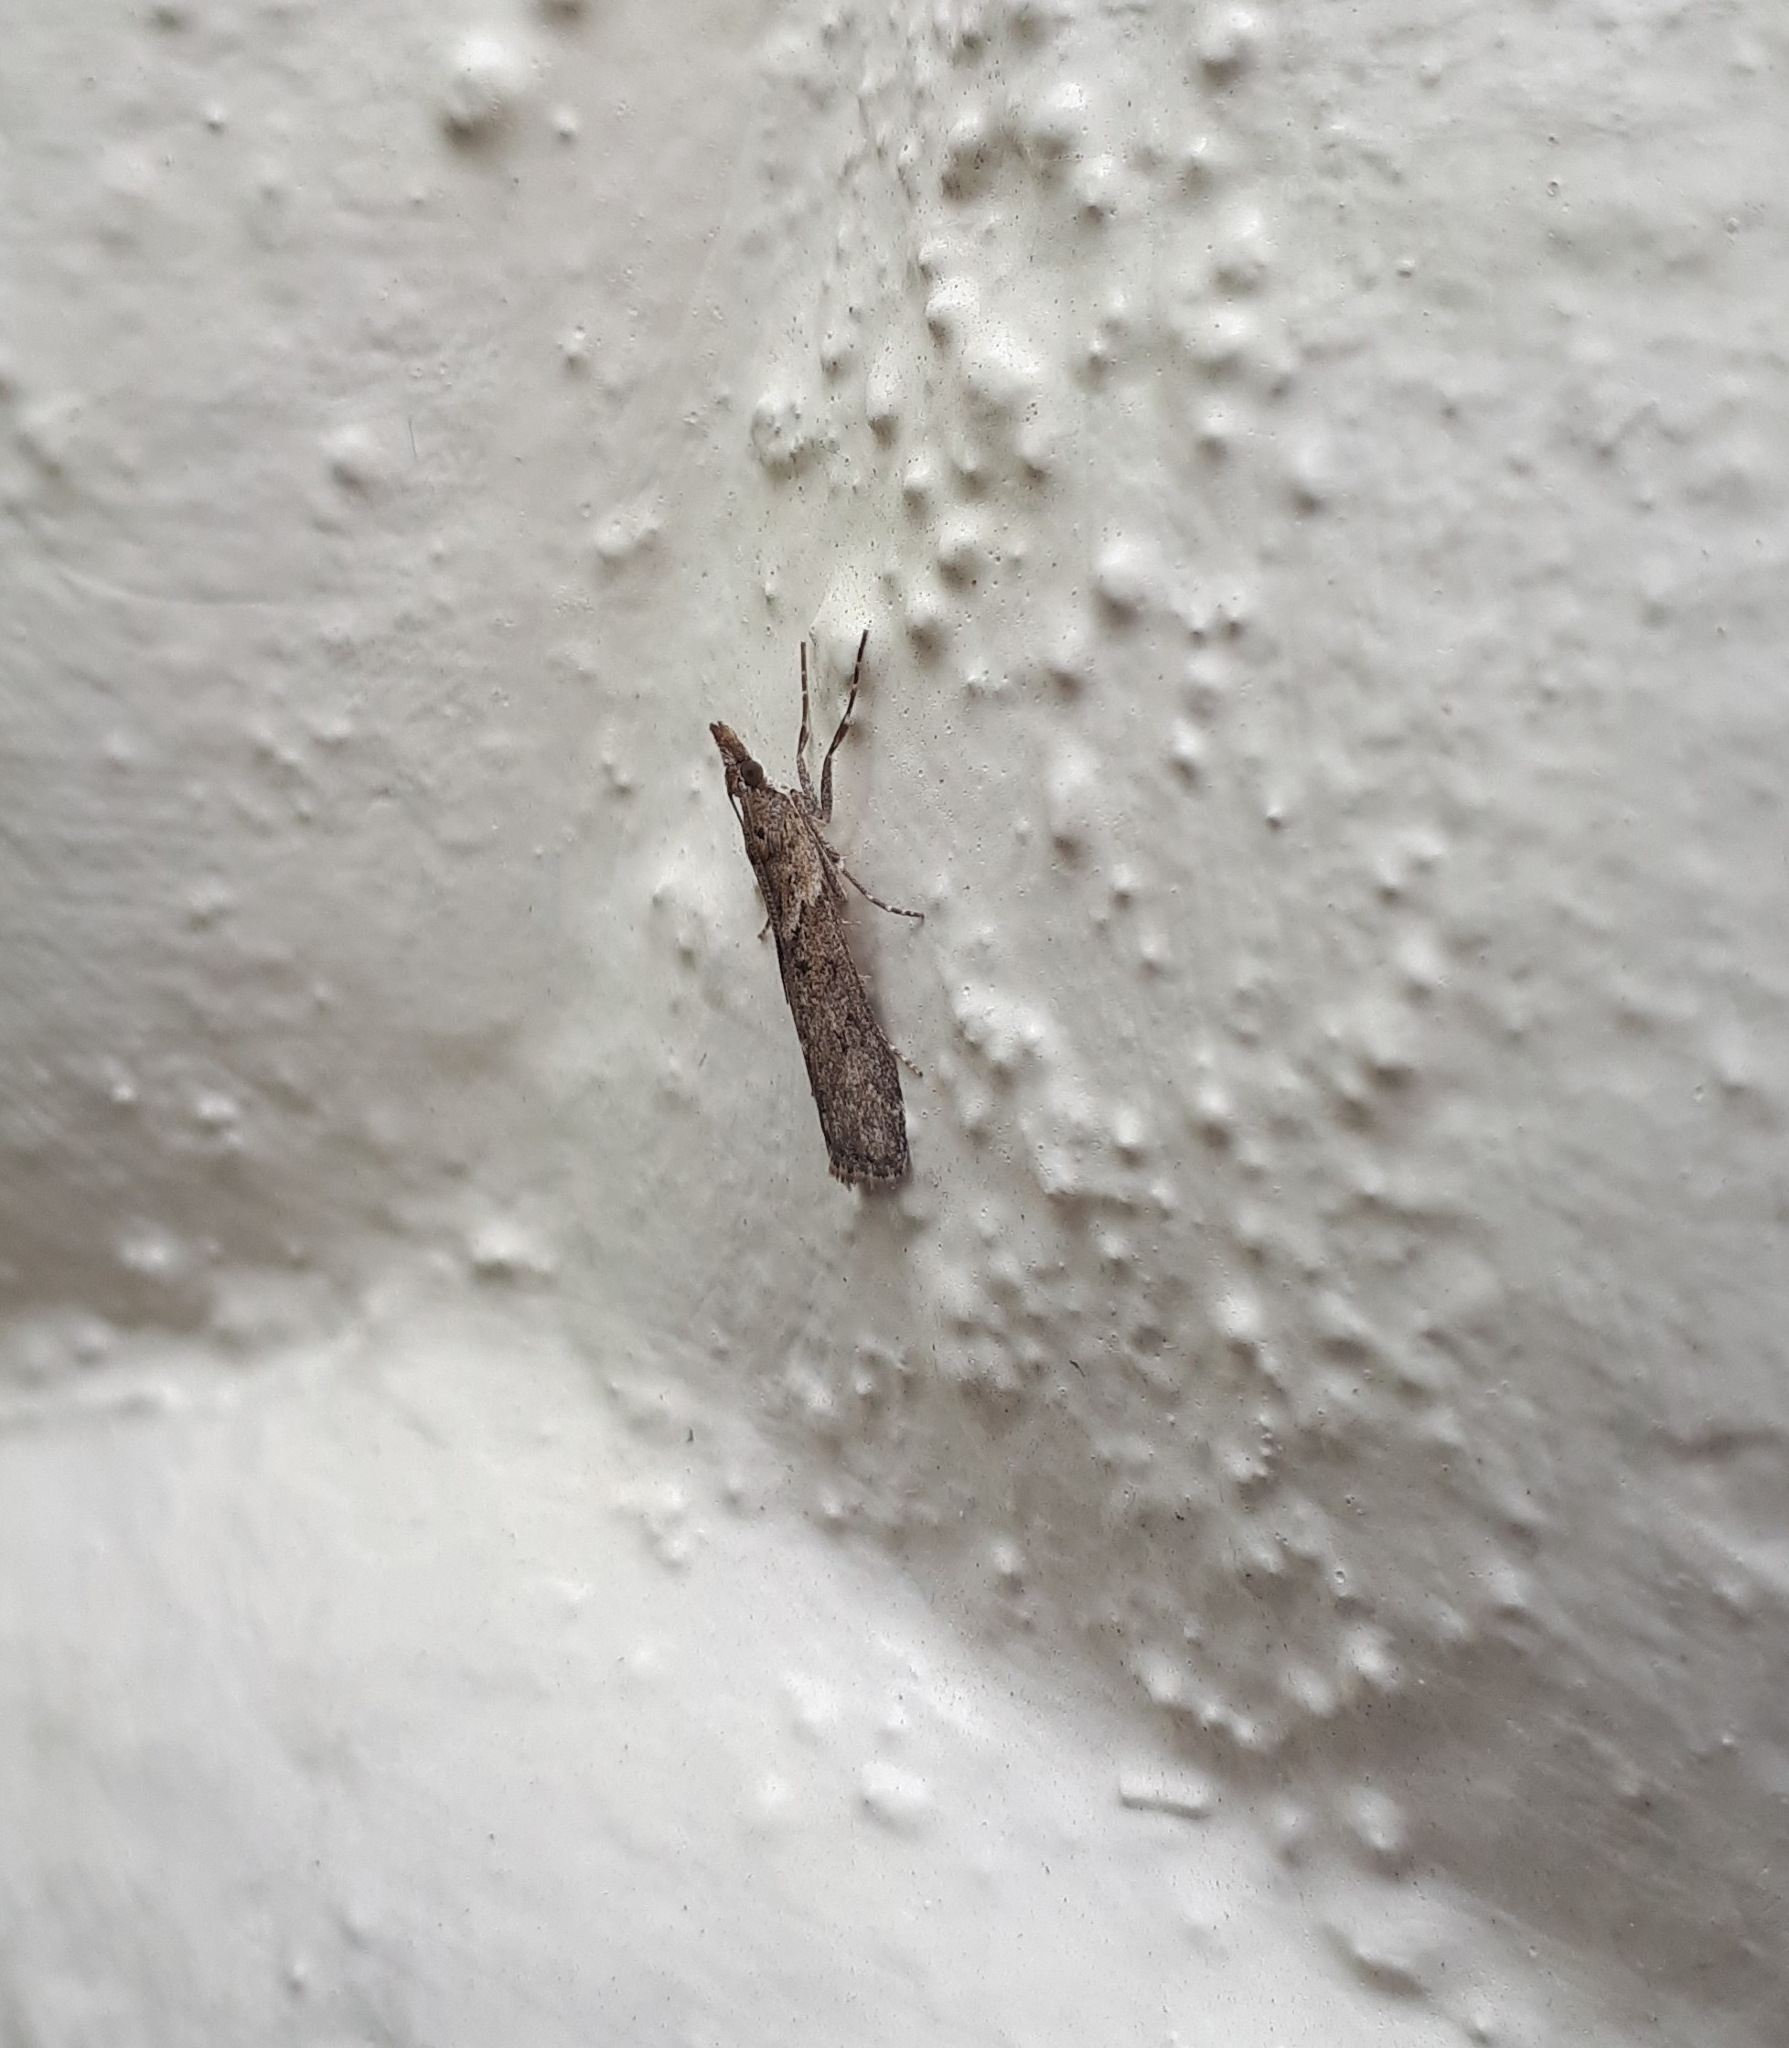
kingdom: Animalia
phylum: Arthropoda
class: Insecta
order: Lepidoptera
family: Crambidae
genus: Eudonia
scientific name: Eudonia leptalea
